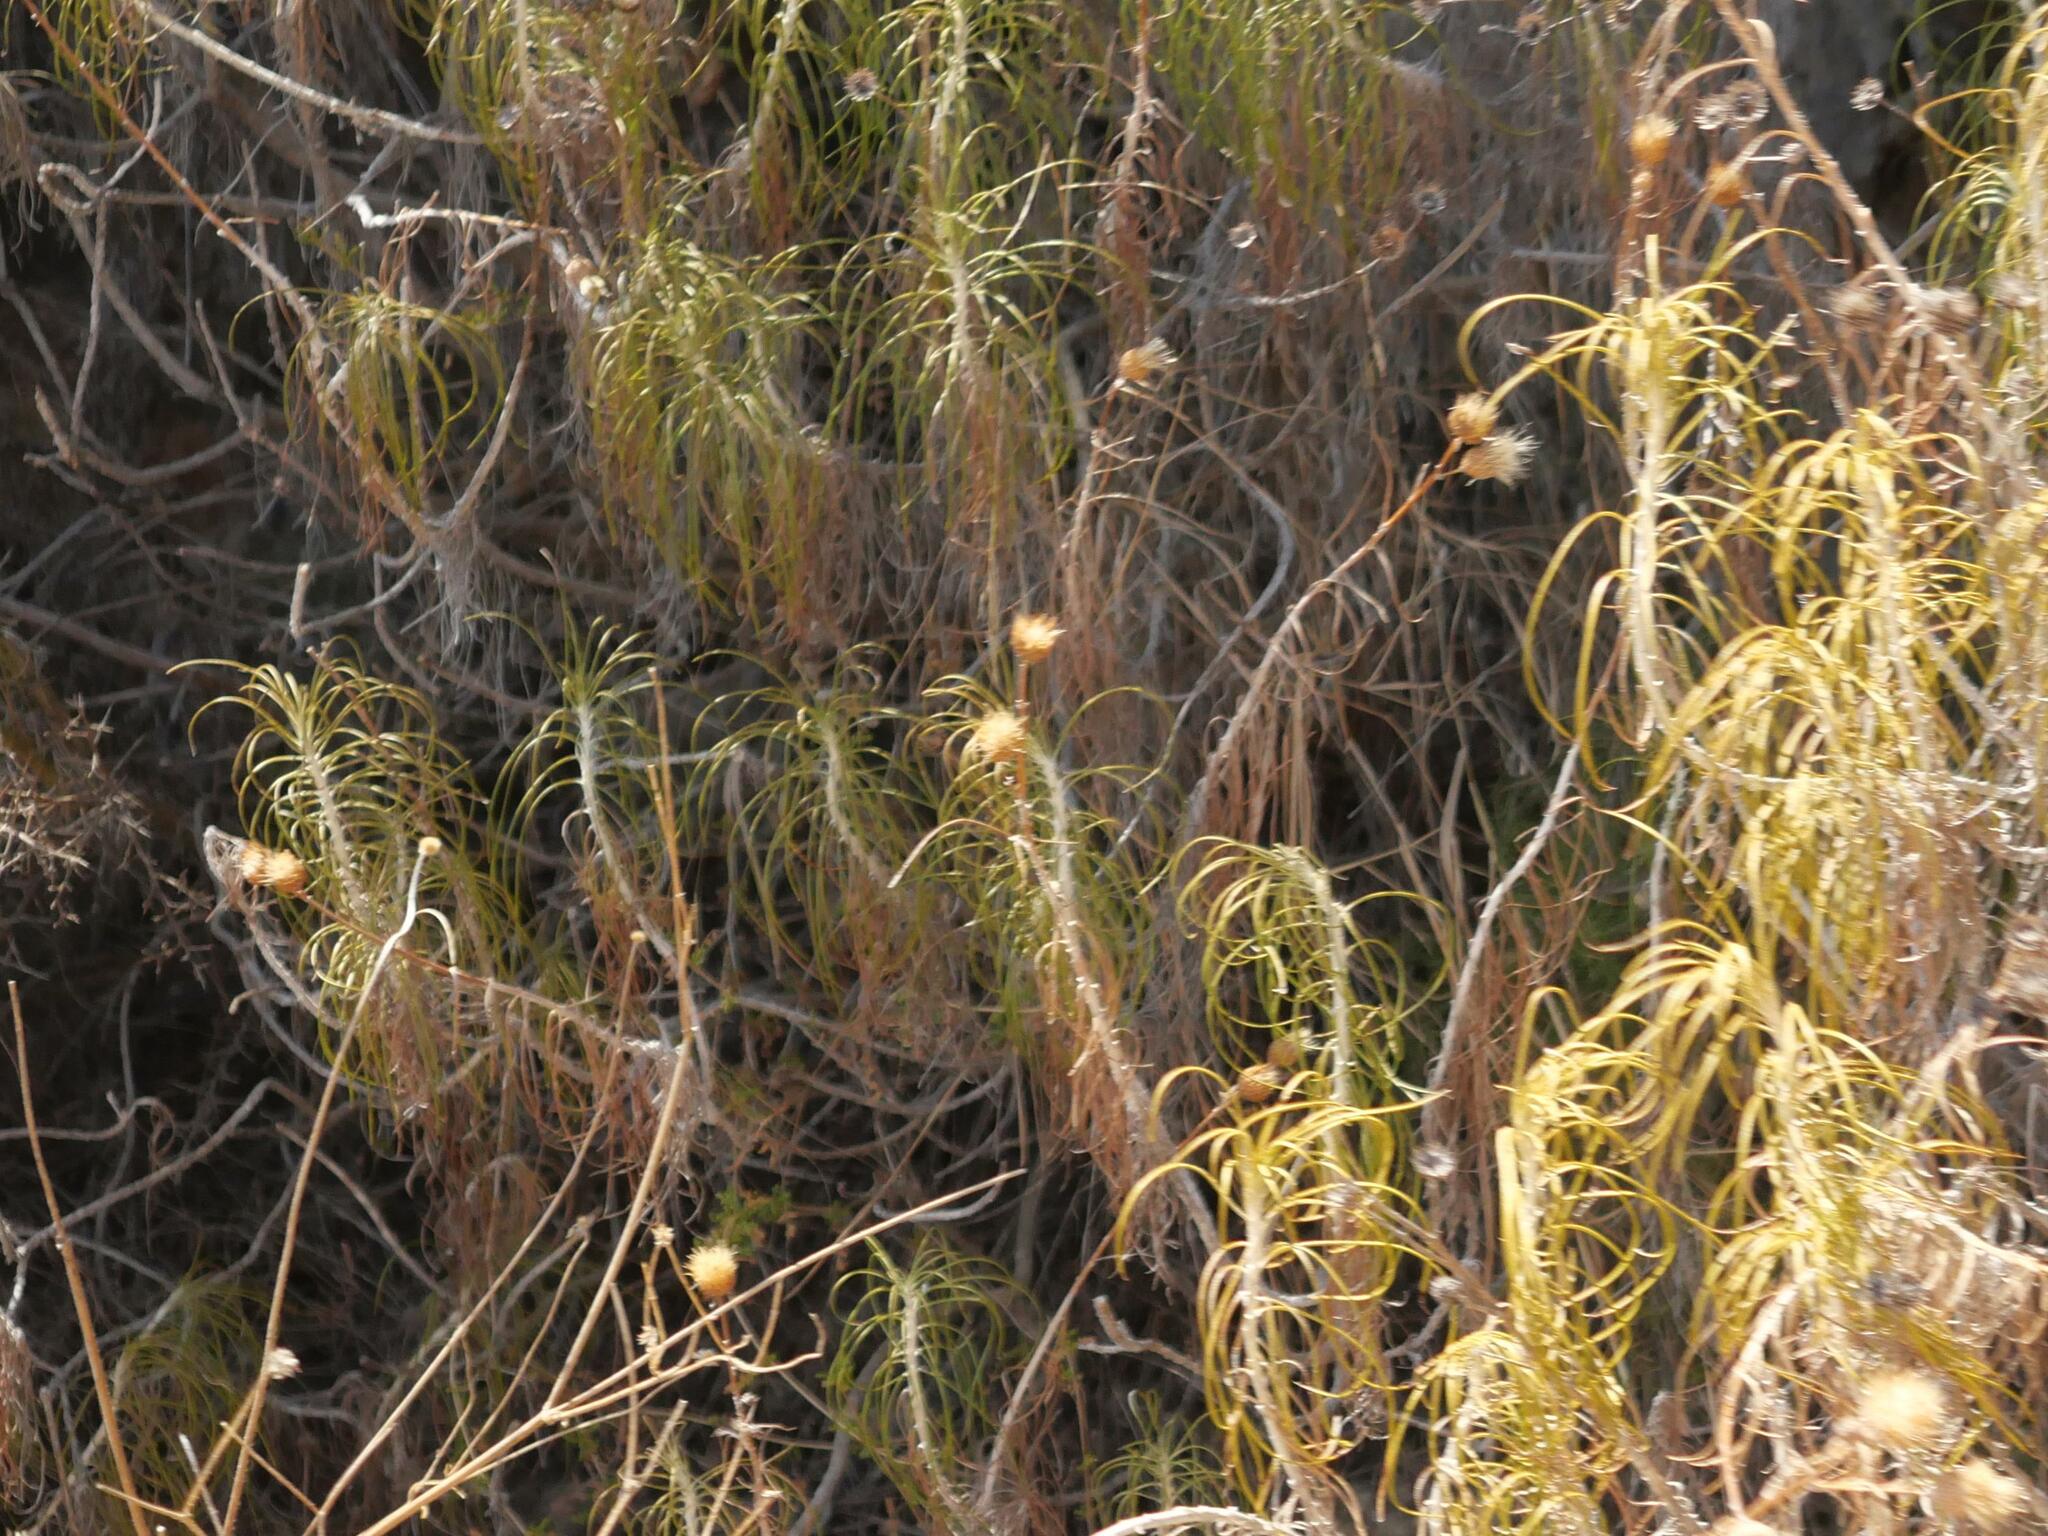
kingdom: Plantae
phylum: Tracheophyta
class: Magnoliopsida
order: Asterales
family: Asteraceae
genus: Ptilostemon
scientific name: Ptilostemon chamaepeuce
